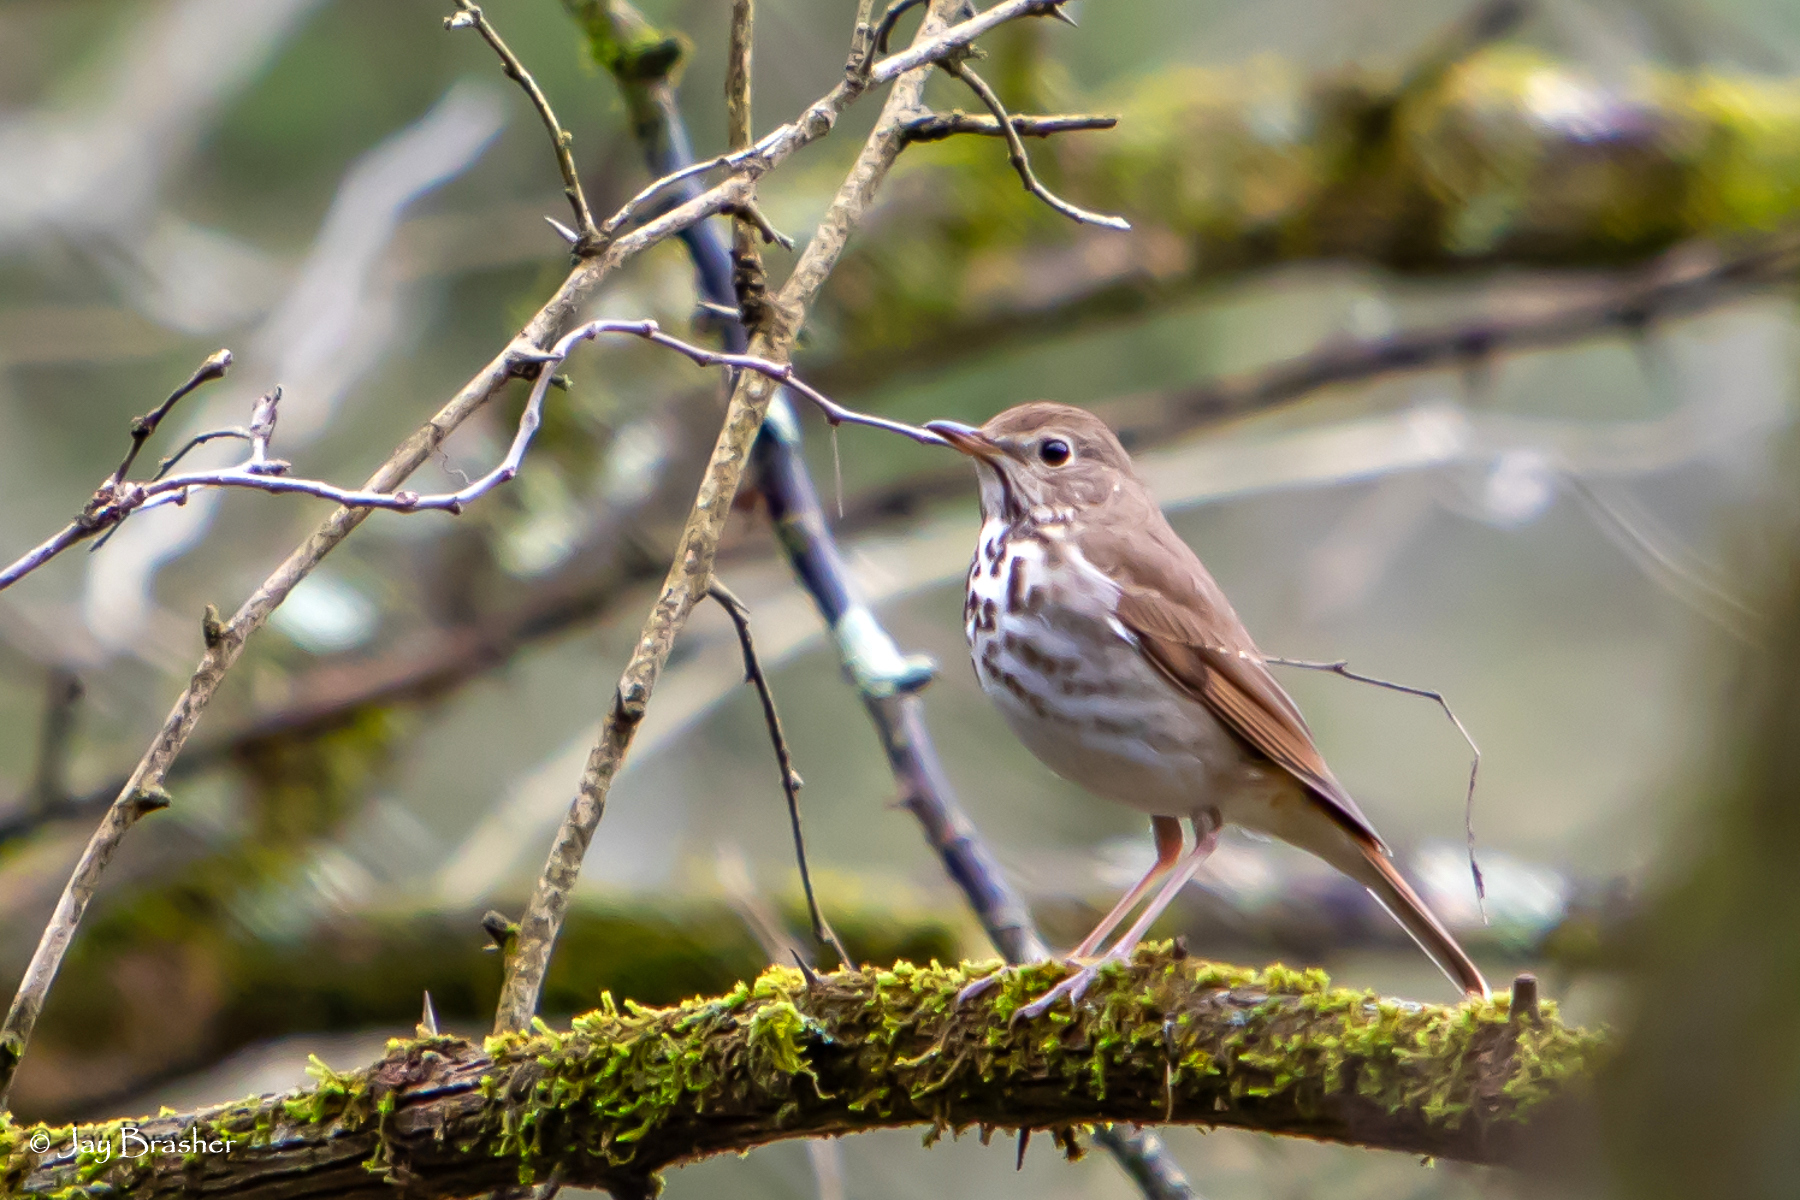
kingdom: Animalia
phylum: Chordata
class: Aves
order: Passeriformes
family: Turdidae
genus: Catharus
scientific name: Catharus guttatus
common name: Hermit thrush
